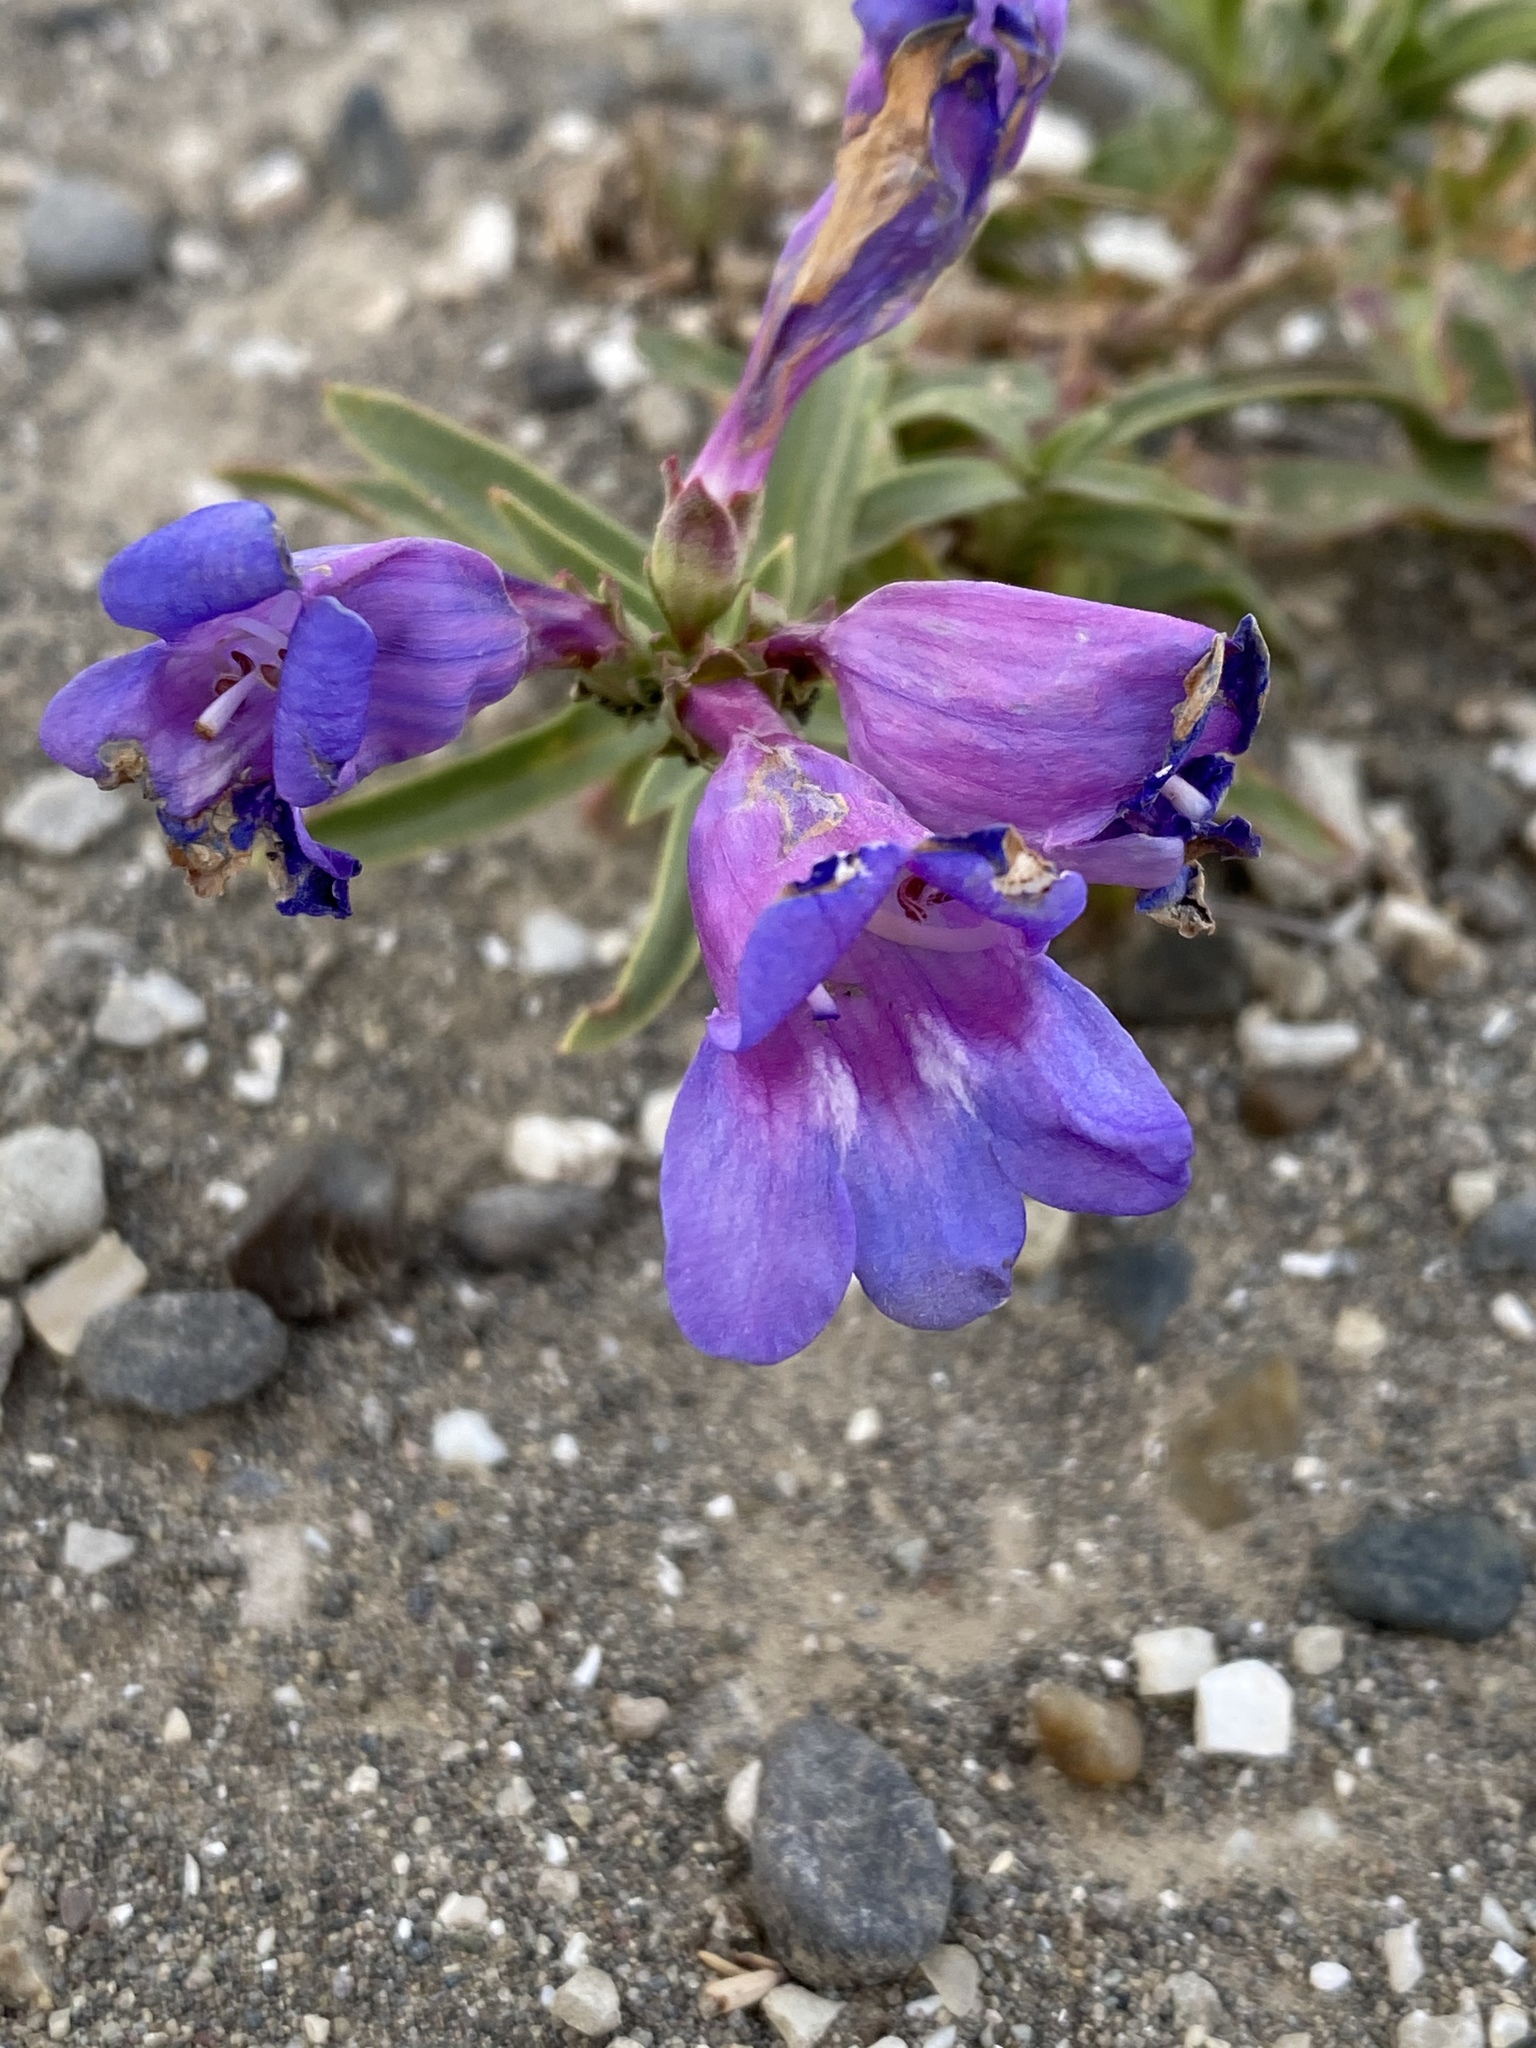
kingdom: Plantae
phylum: Tracheophyta
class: Magnoliopsida
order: Lamiales
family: Plantaginaceae
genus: Penstemon
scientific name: Penstemon heterophyllus
